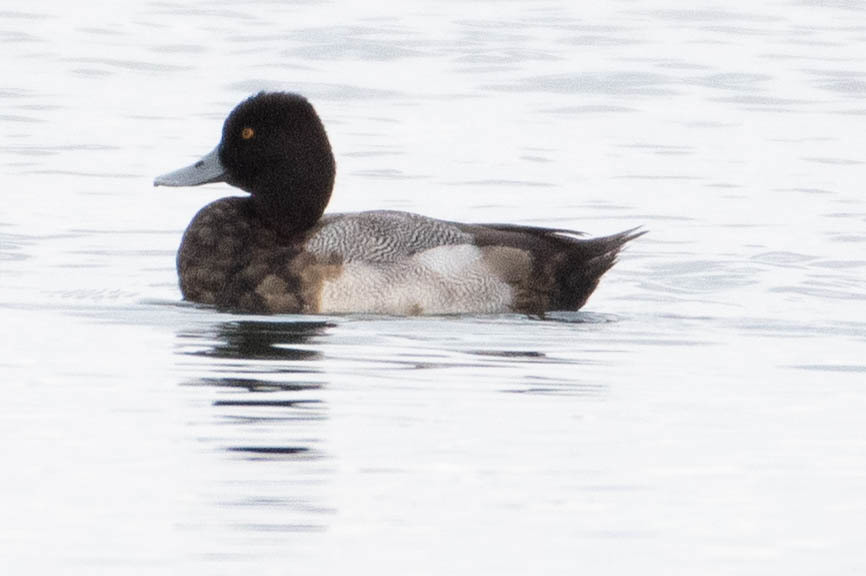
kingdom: Animalia
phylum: Chordata
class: Aves
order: Anseriformes
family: Anatidae
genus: Aythya
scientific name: Aythya affinis
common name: Lesser scaup
